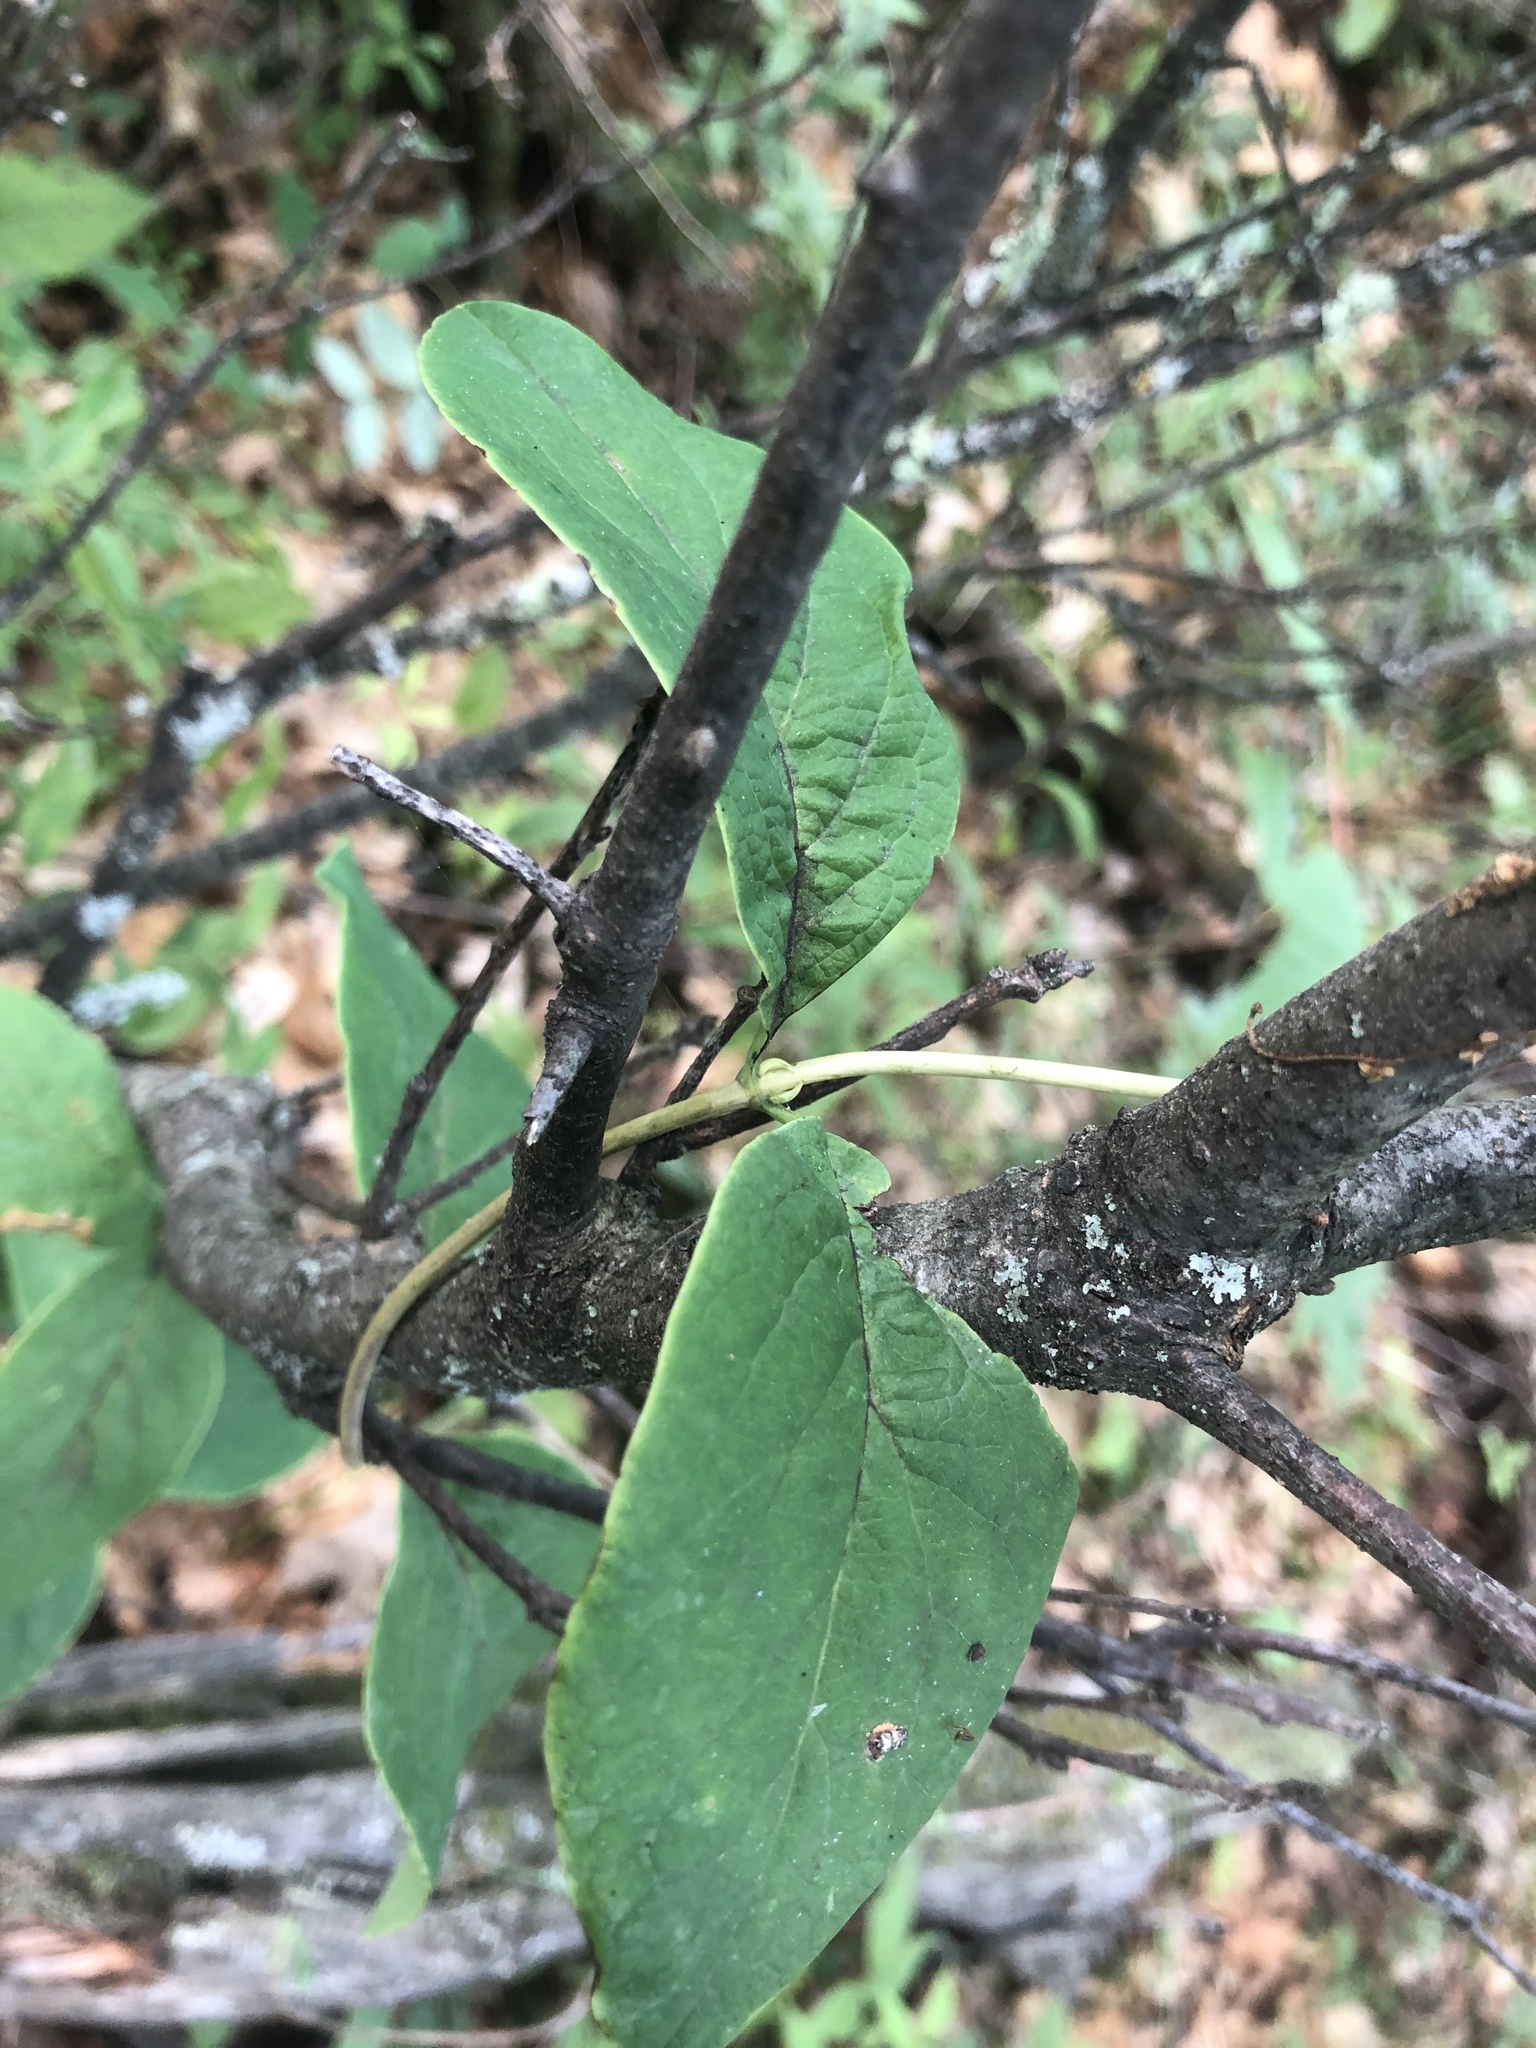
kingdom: Plantae
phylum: Tracheophyta
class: Magnoliopsida
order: Dipsacales
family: Caprifoliaceae
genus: Lonicera
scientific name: Lonicera dioica
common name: Limber honeysuckle
